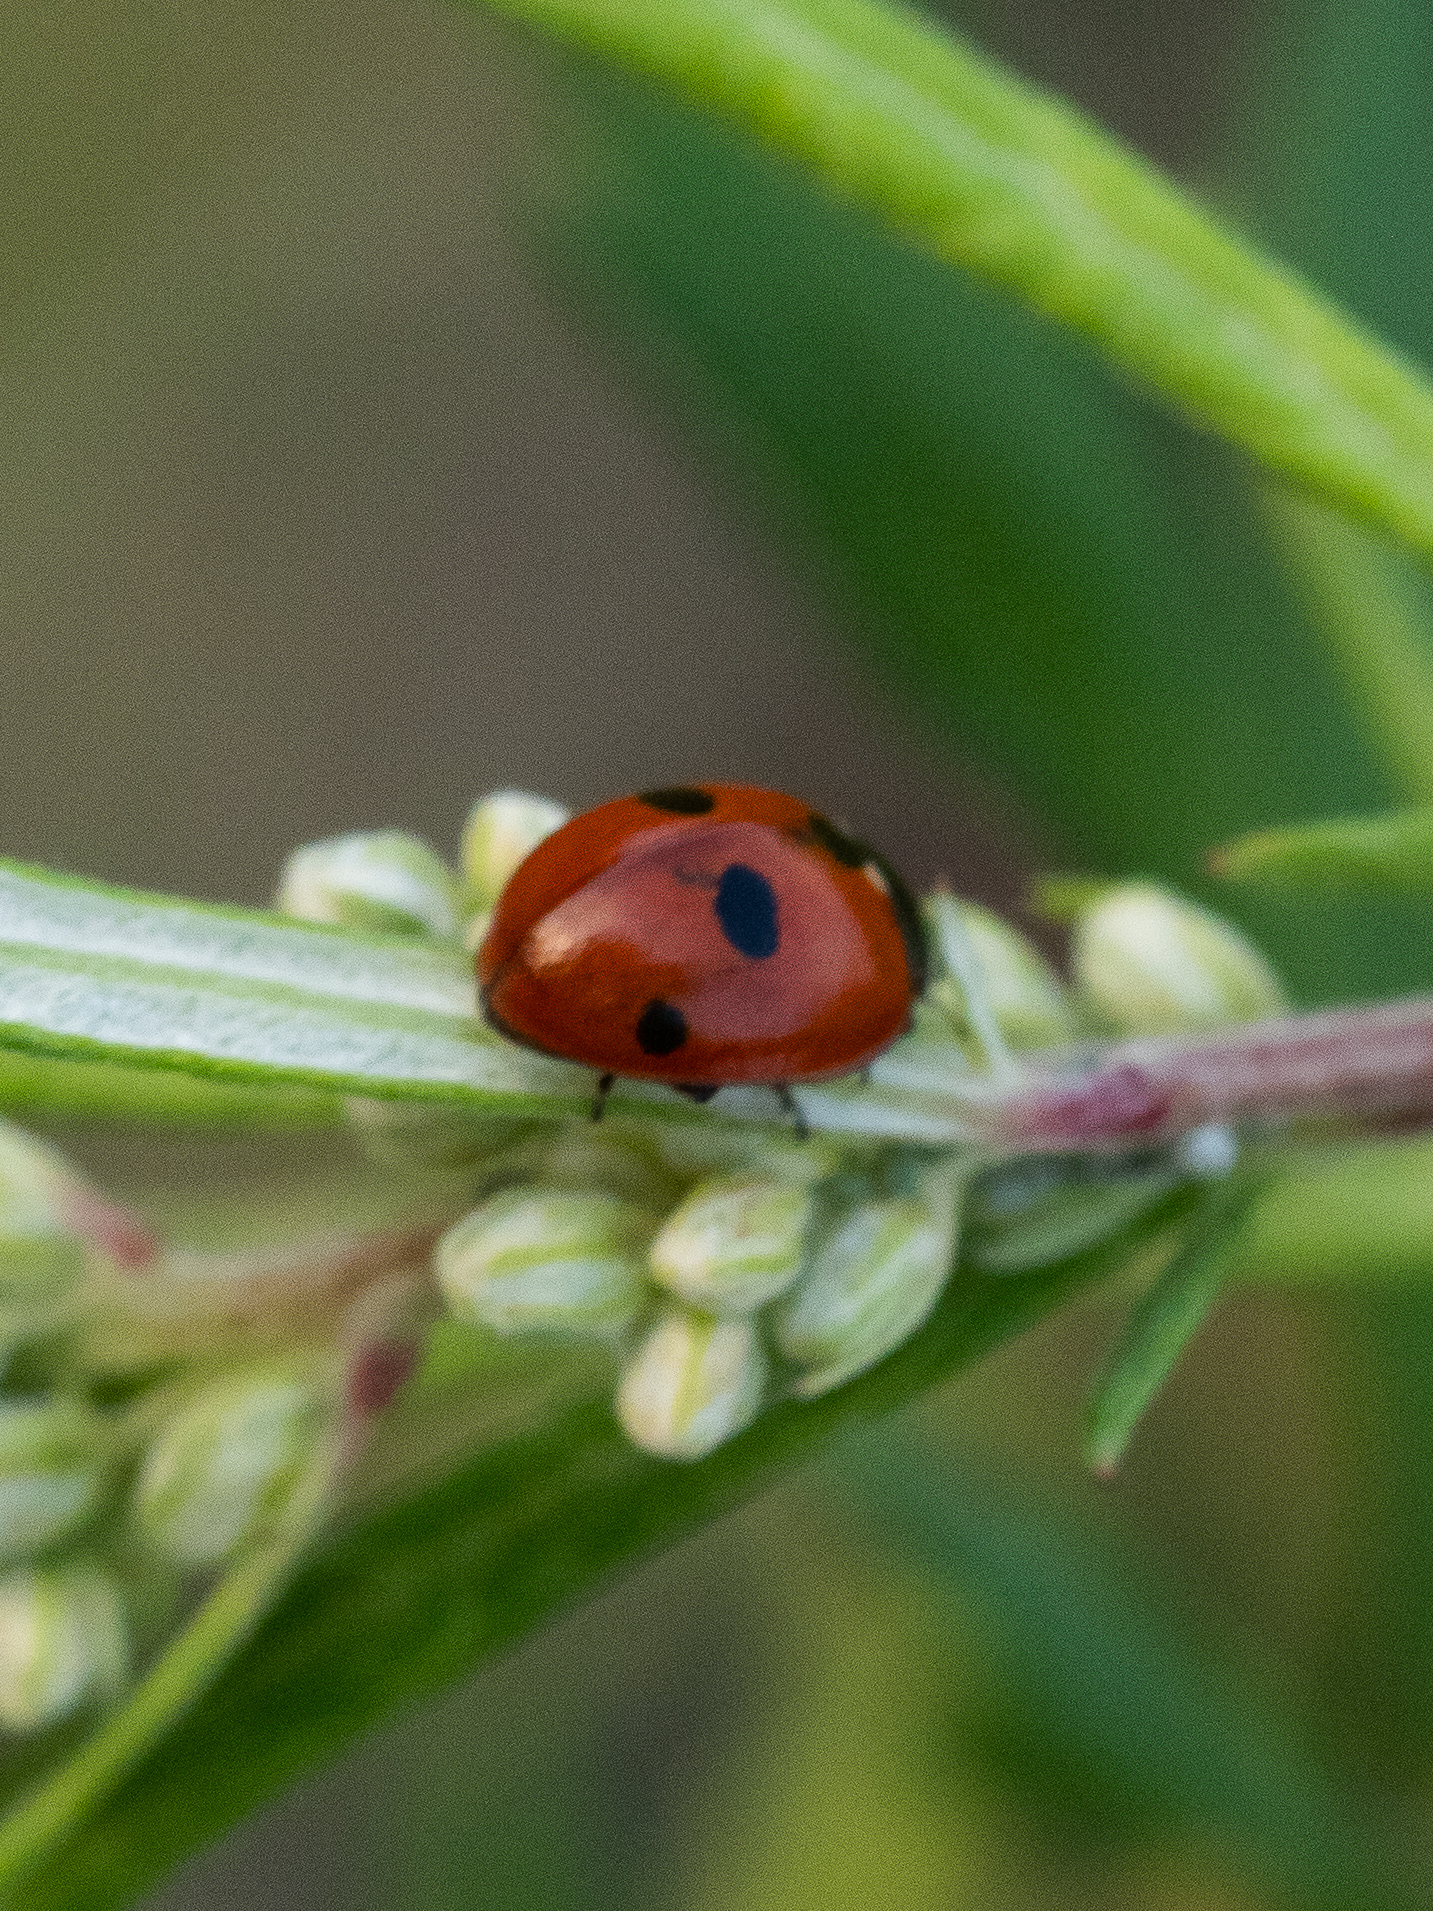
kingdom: Animalia
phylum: Arthropoda
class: Insecta
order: Coleoptera
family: Coccinellidae
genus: Coccinella
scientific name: Coccinella quinquepunctata
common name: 5-spot ladybird
